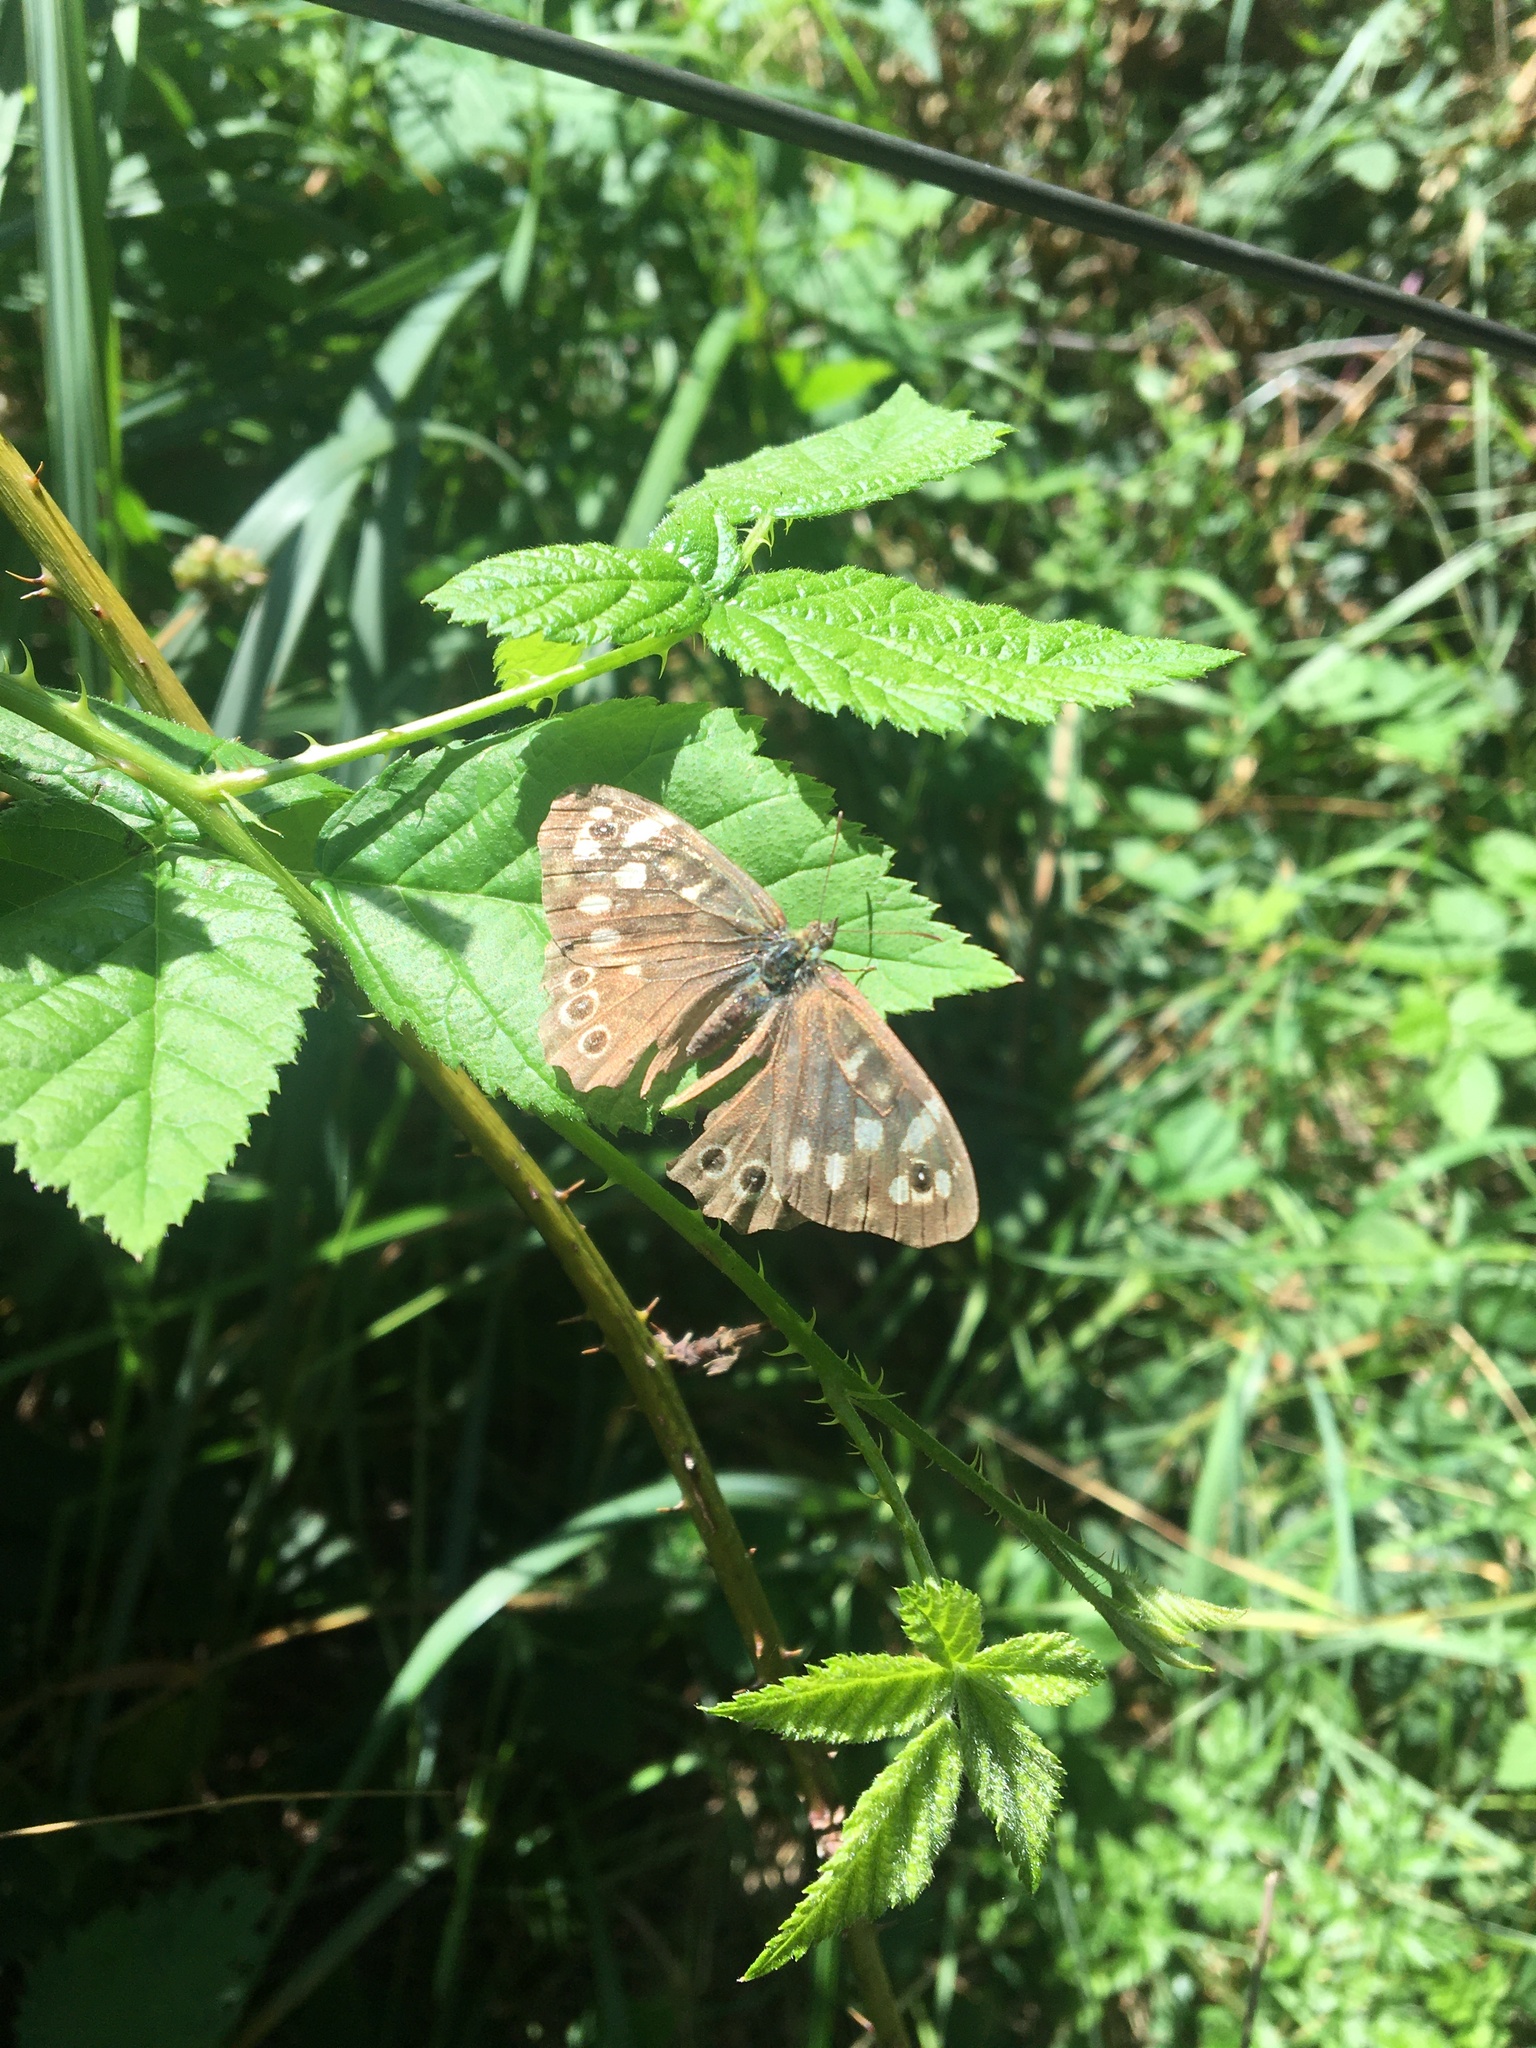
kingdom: Animalia
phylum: Arthropoda
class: Insecta
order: Lepidoptera
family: Nymphalidae
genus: Pararge
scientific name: Pararge aegeria
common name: Speckled wood
